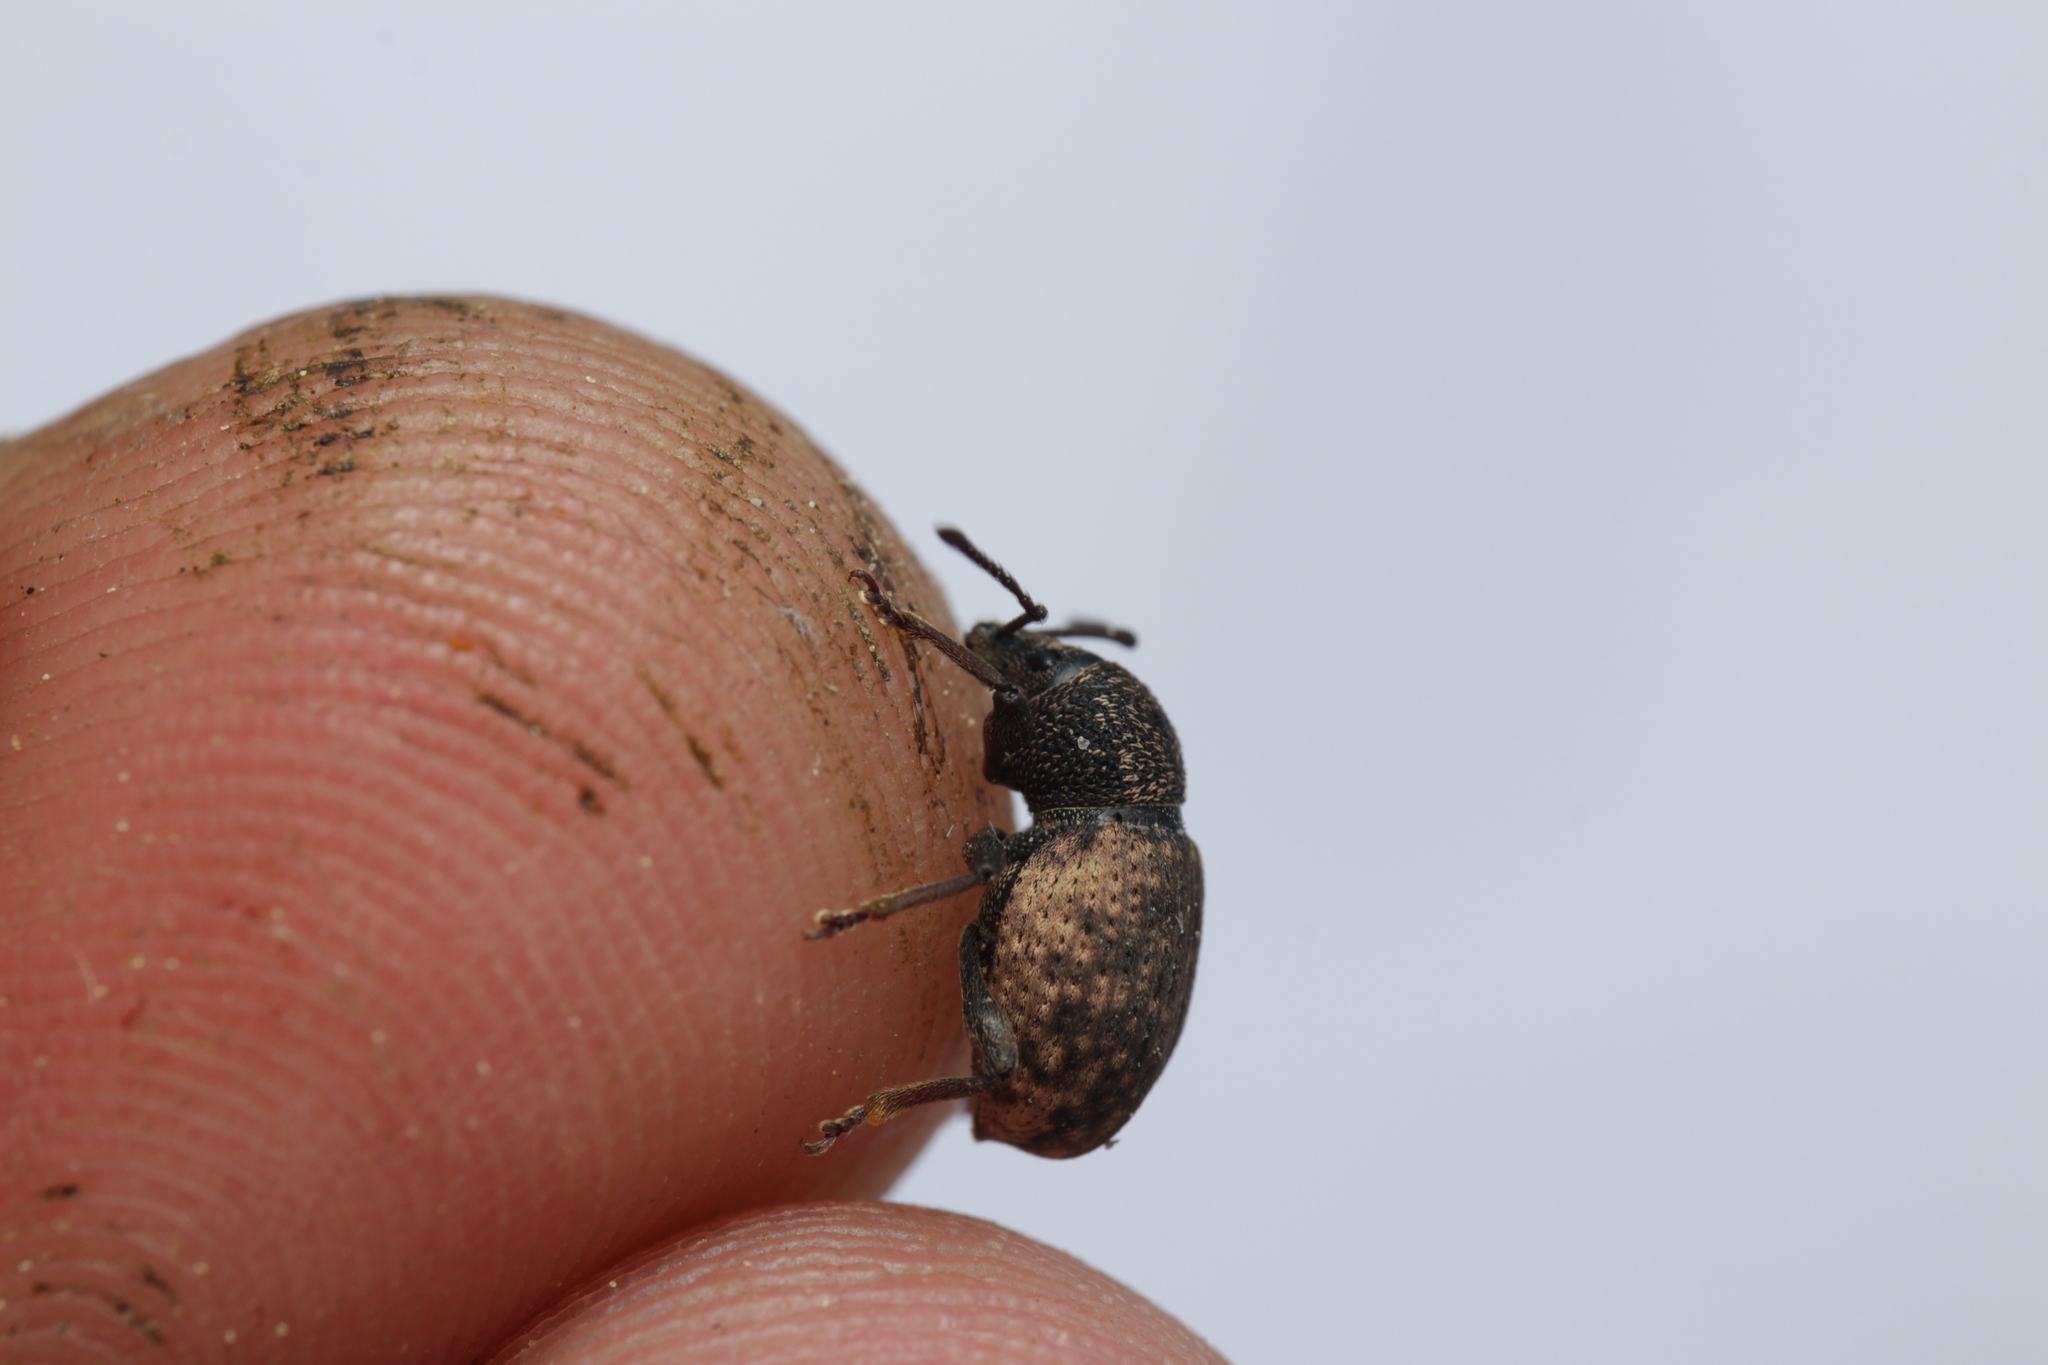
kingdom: Animalia
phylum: Arthropoda
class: Insecta
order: Coleoptera
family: Curculionidae
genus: Otiorhynchus
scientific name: Otiorhynchus raucus
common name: Weevil
